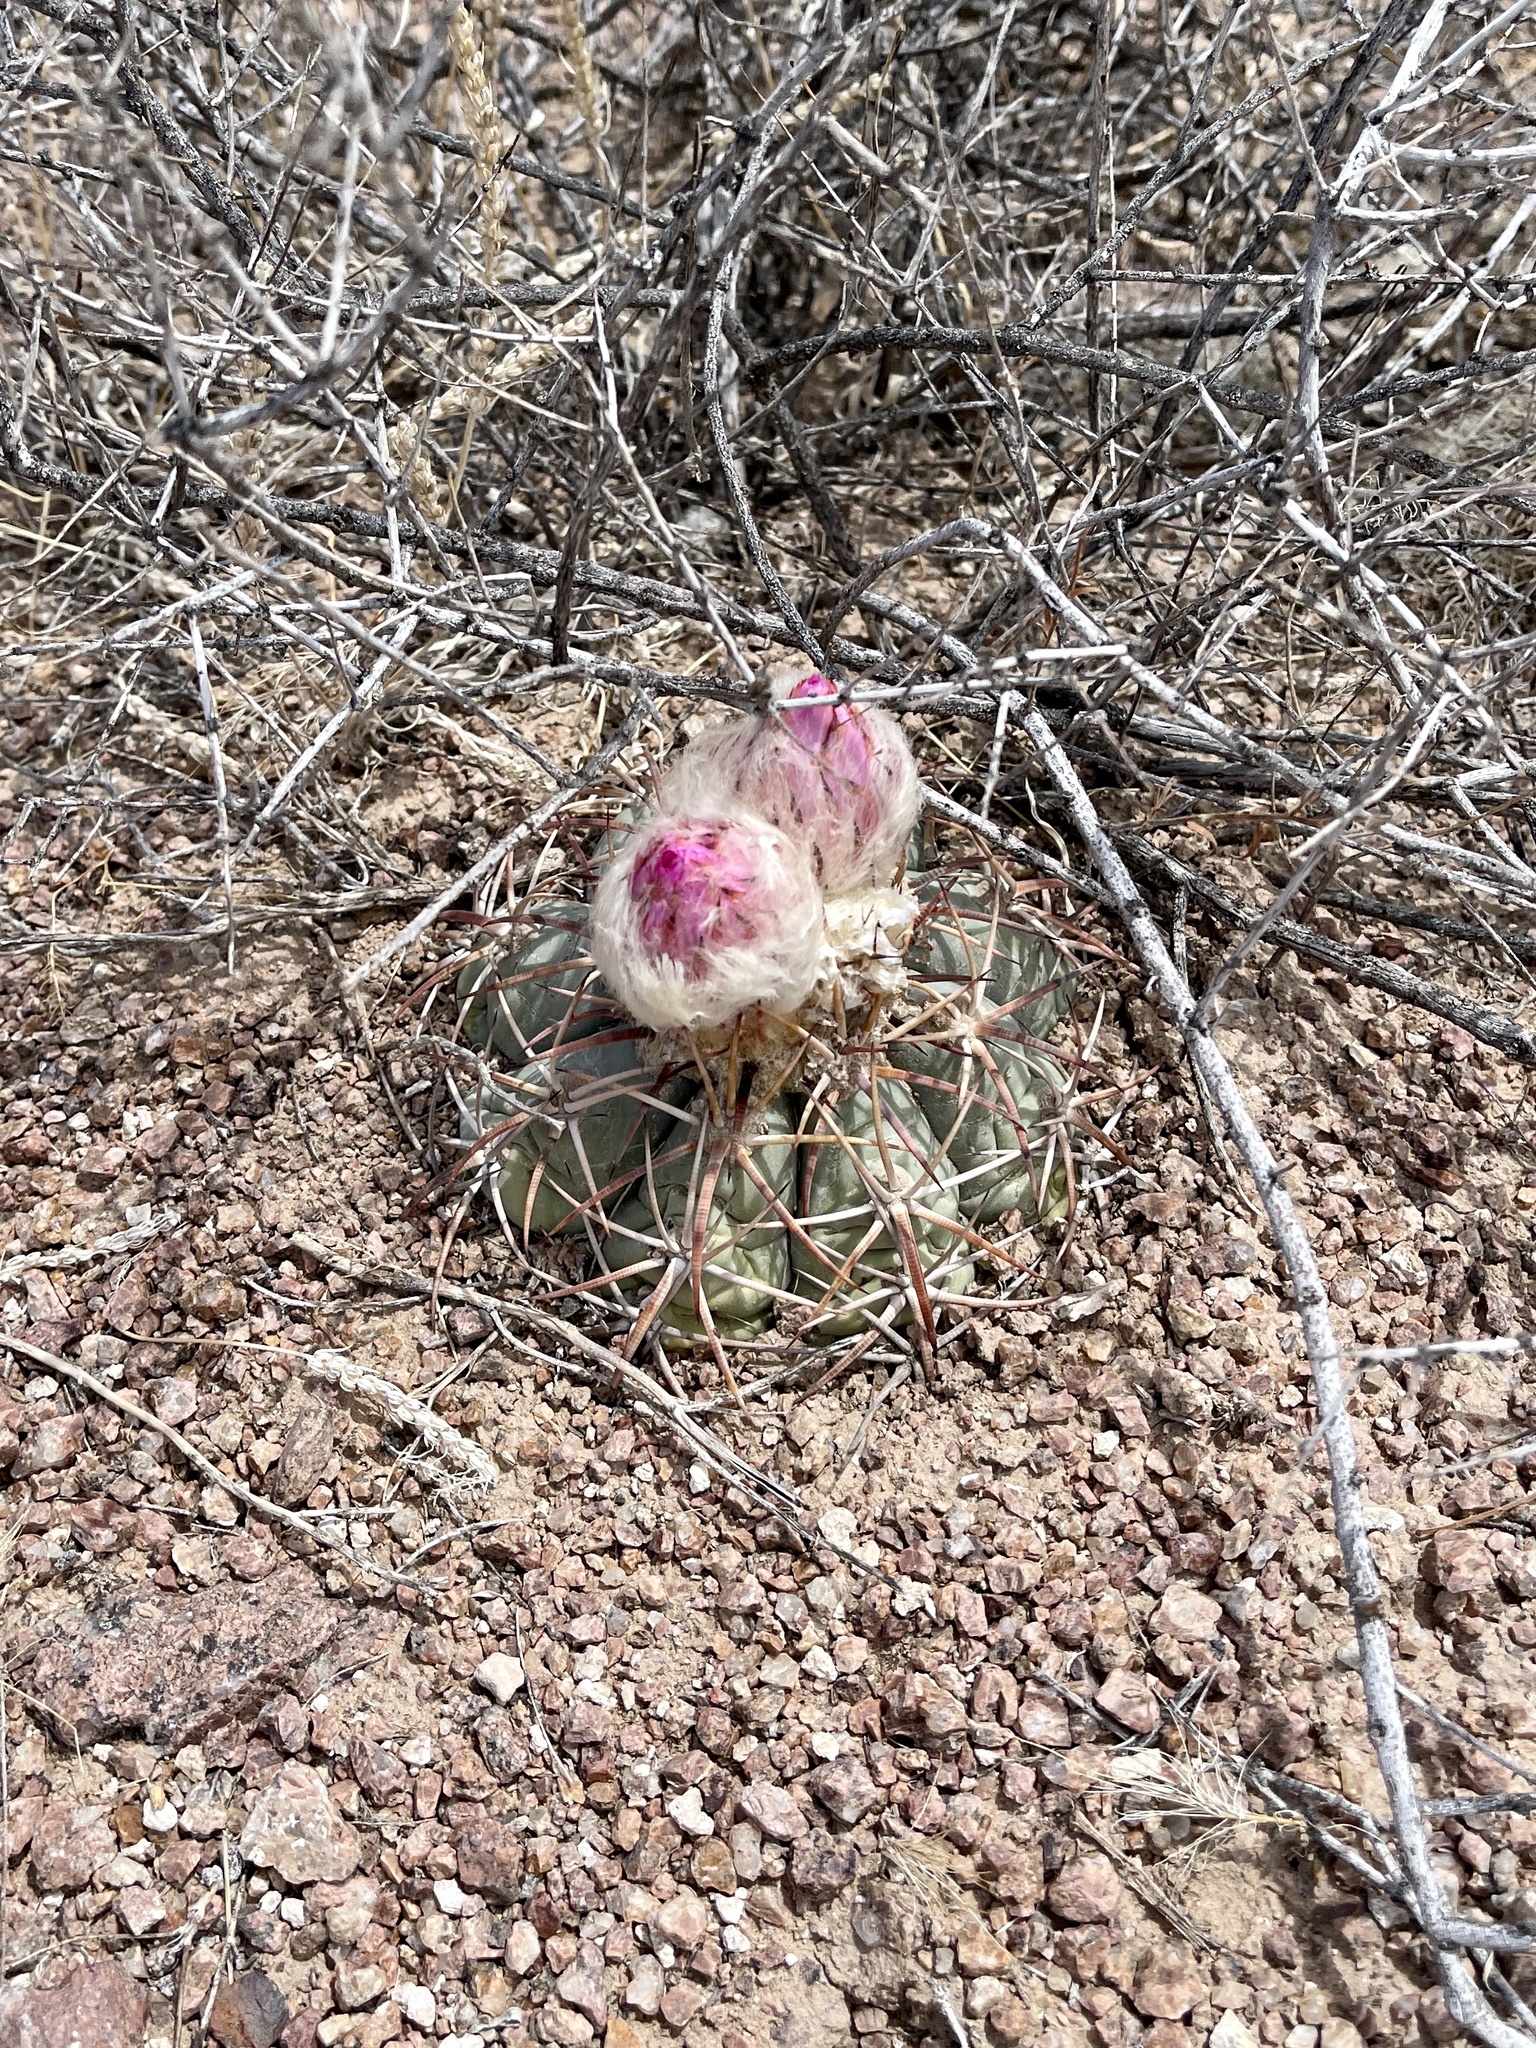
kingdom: Plantae
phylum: Tracheophyta
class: Magnoliopsida
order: Caryophyllales
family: Cactaceae
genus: Echinocactus
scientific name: Echinocactus horizonthalonius
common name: Devilshead
